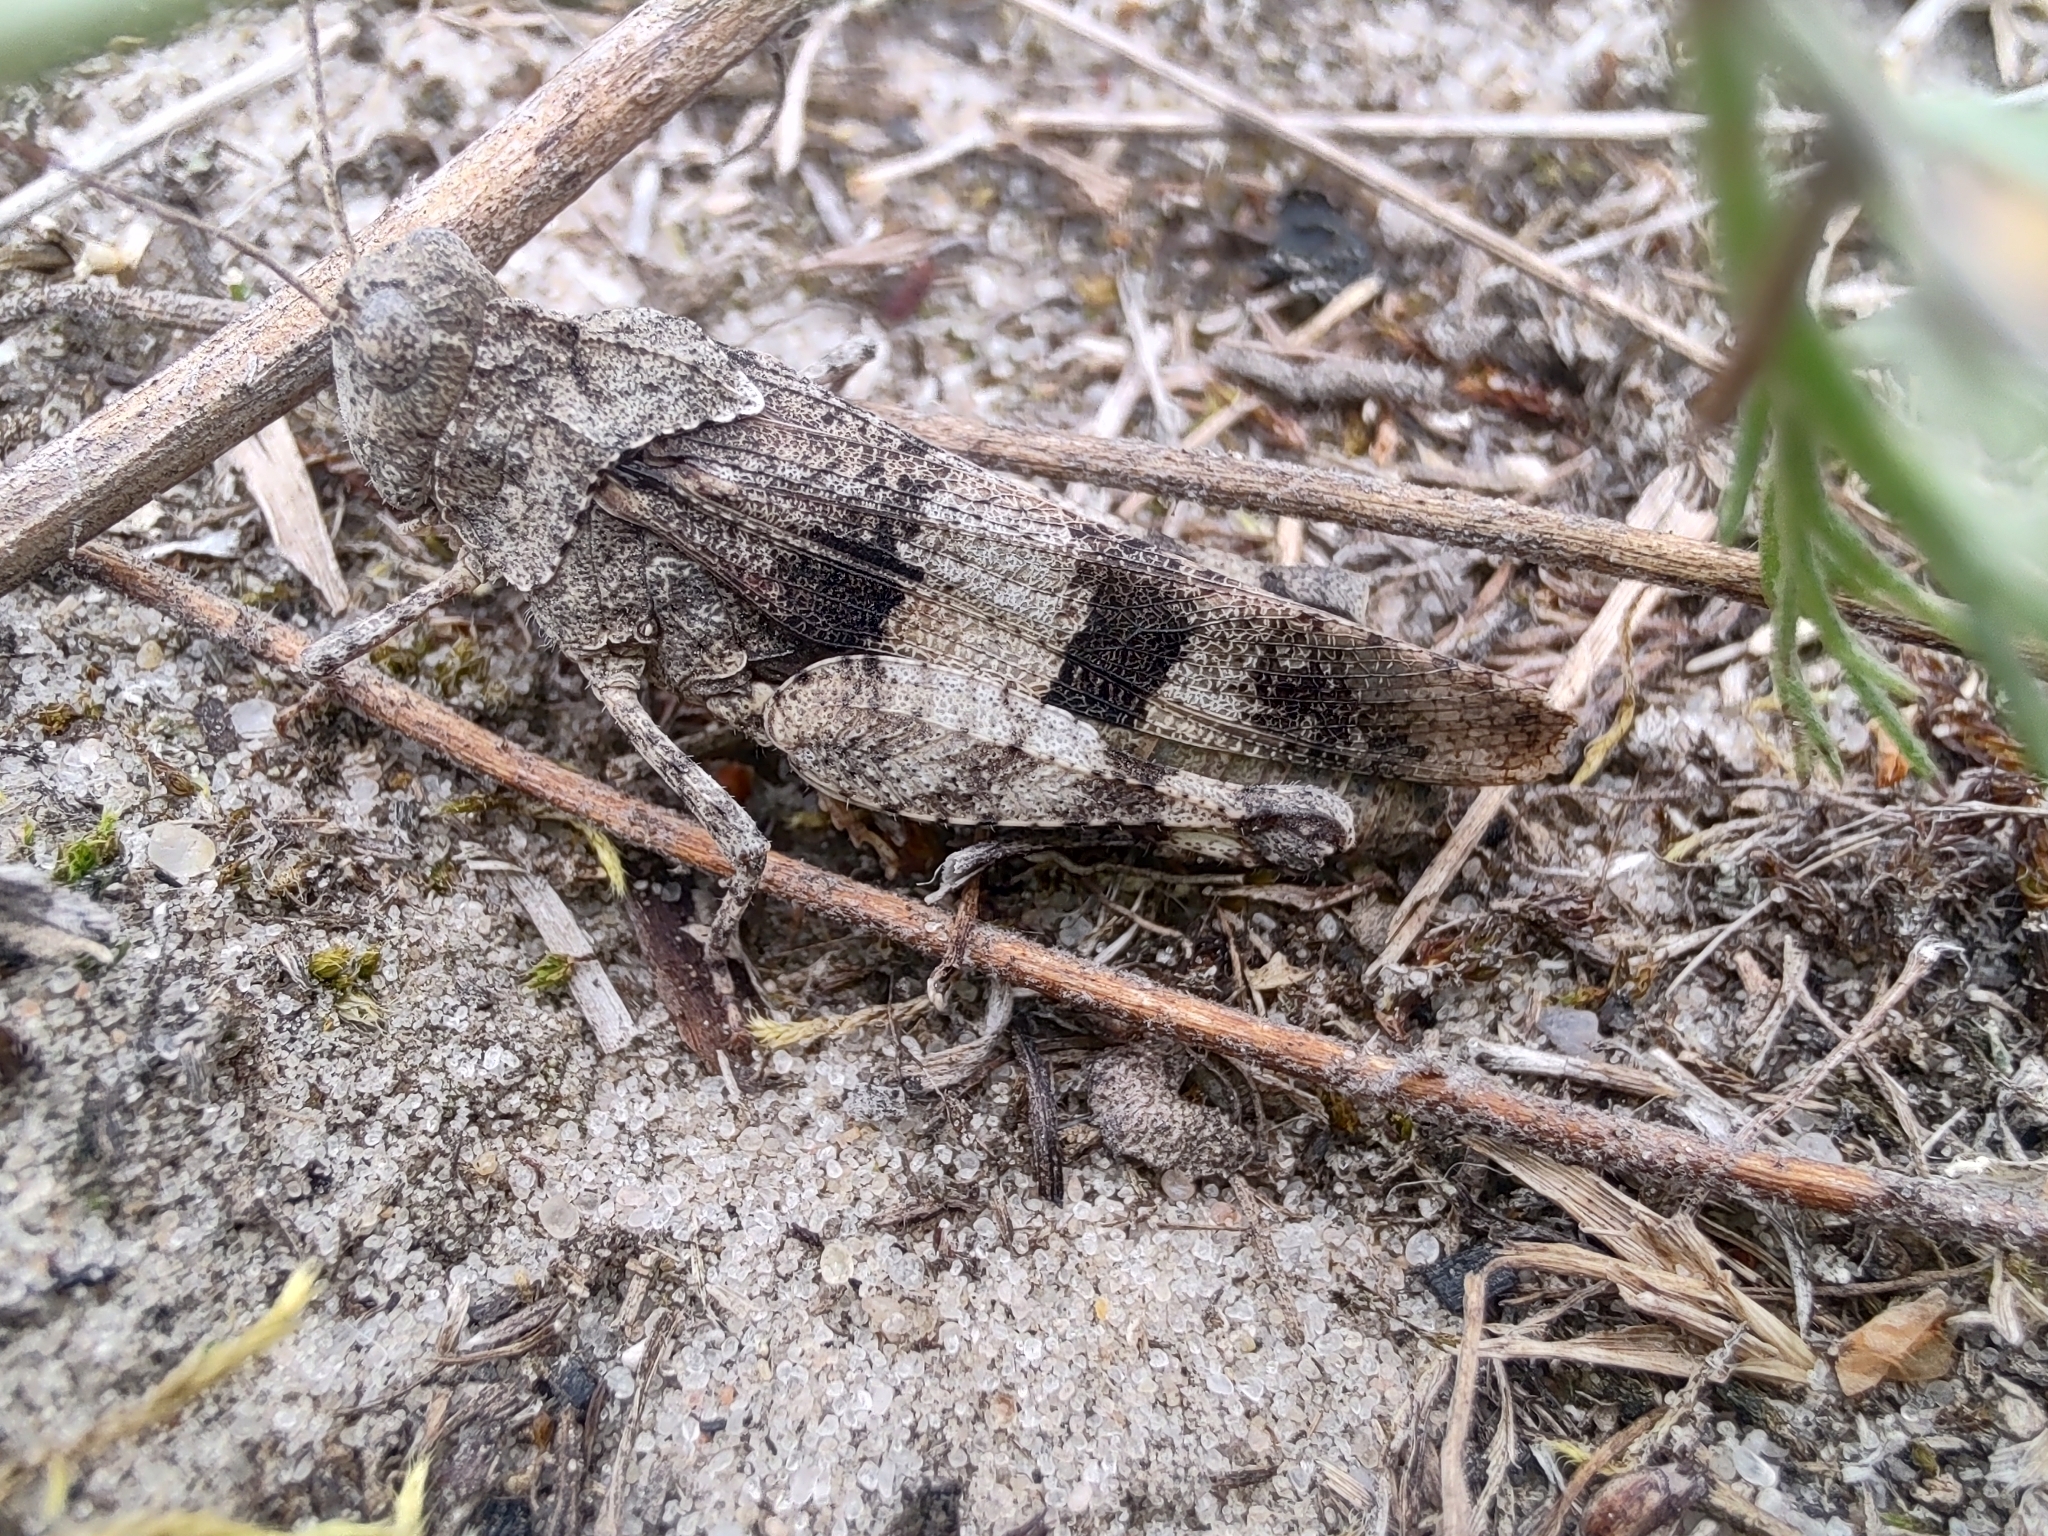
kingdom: Animalia
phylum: Arthropoda
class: Insecta
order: Orthoptera
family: Acrididae
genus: Oedipoda
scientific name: Oedipoda caerulescens
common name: Blue-winged grasshopper
